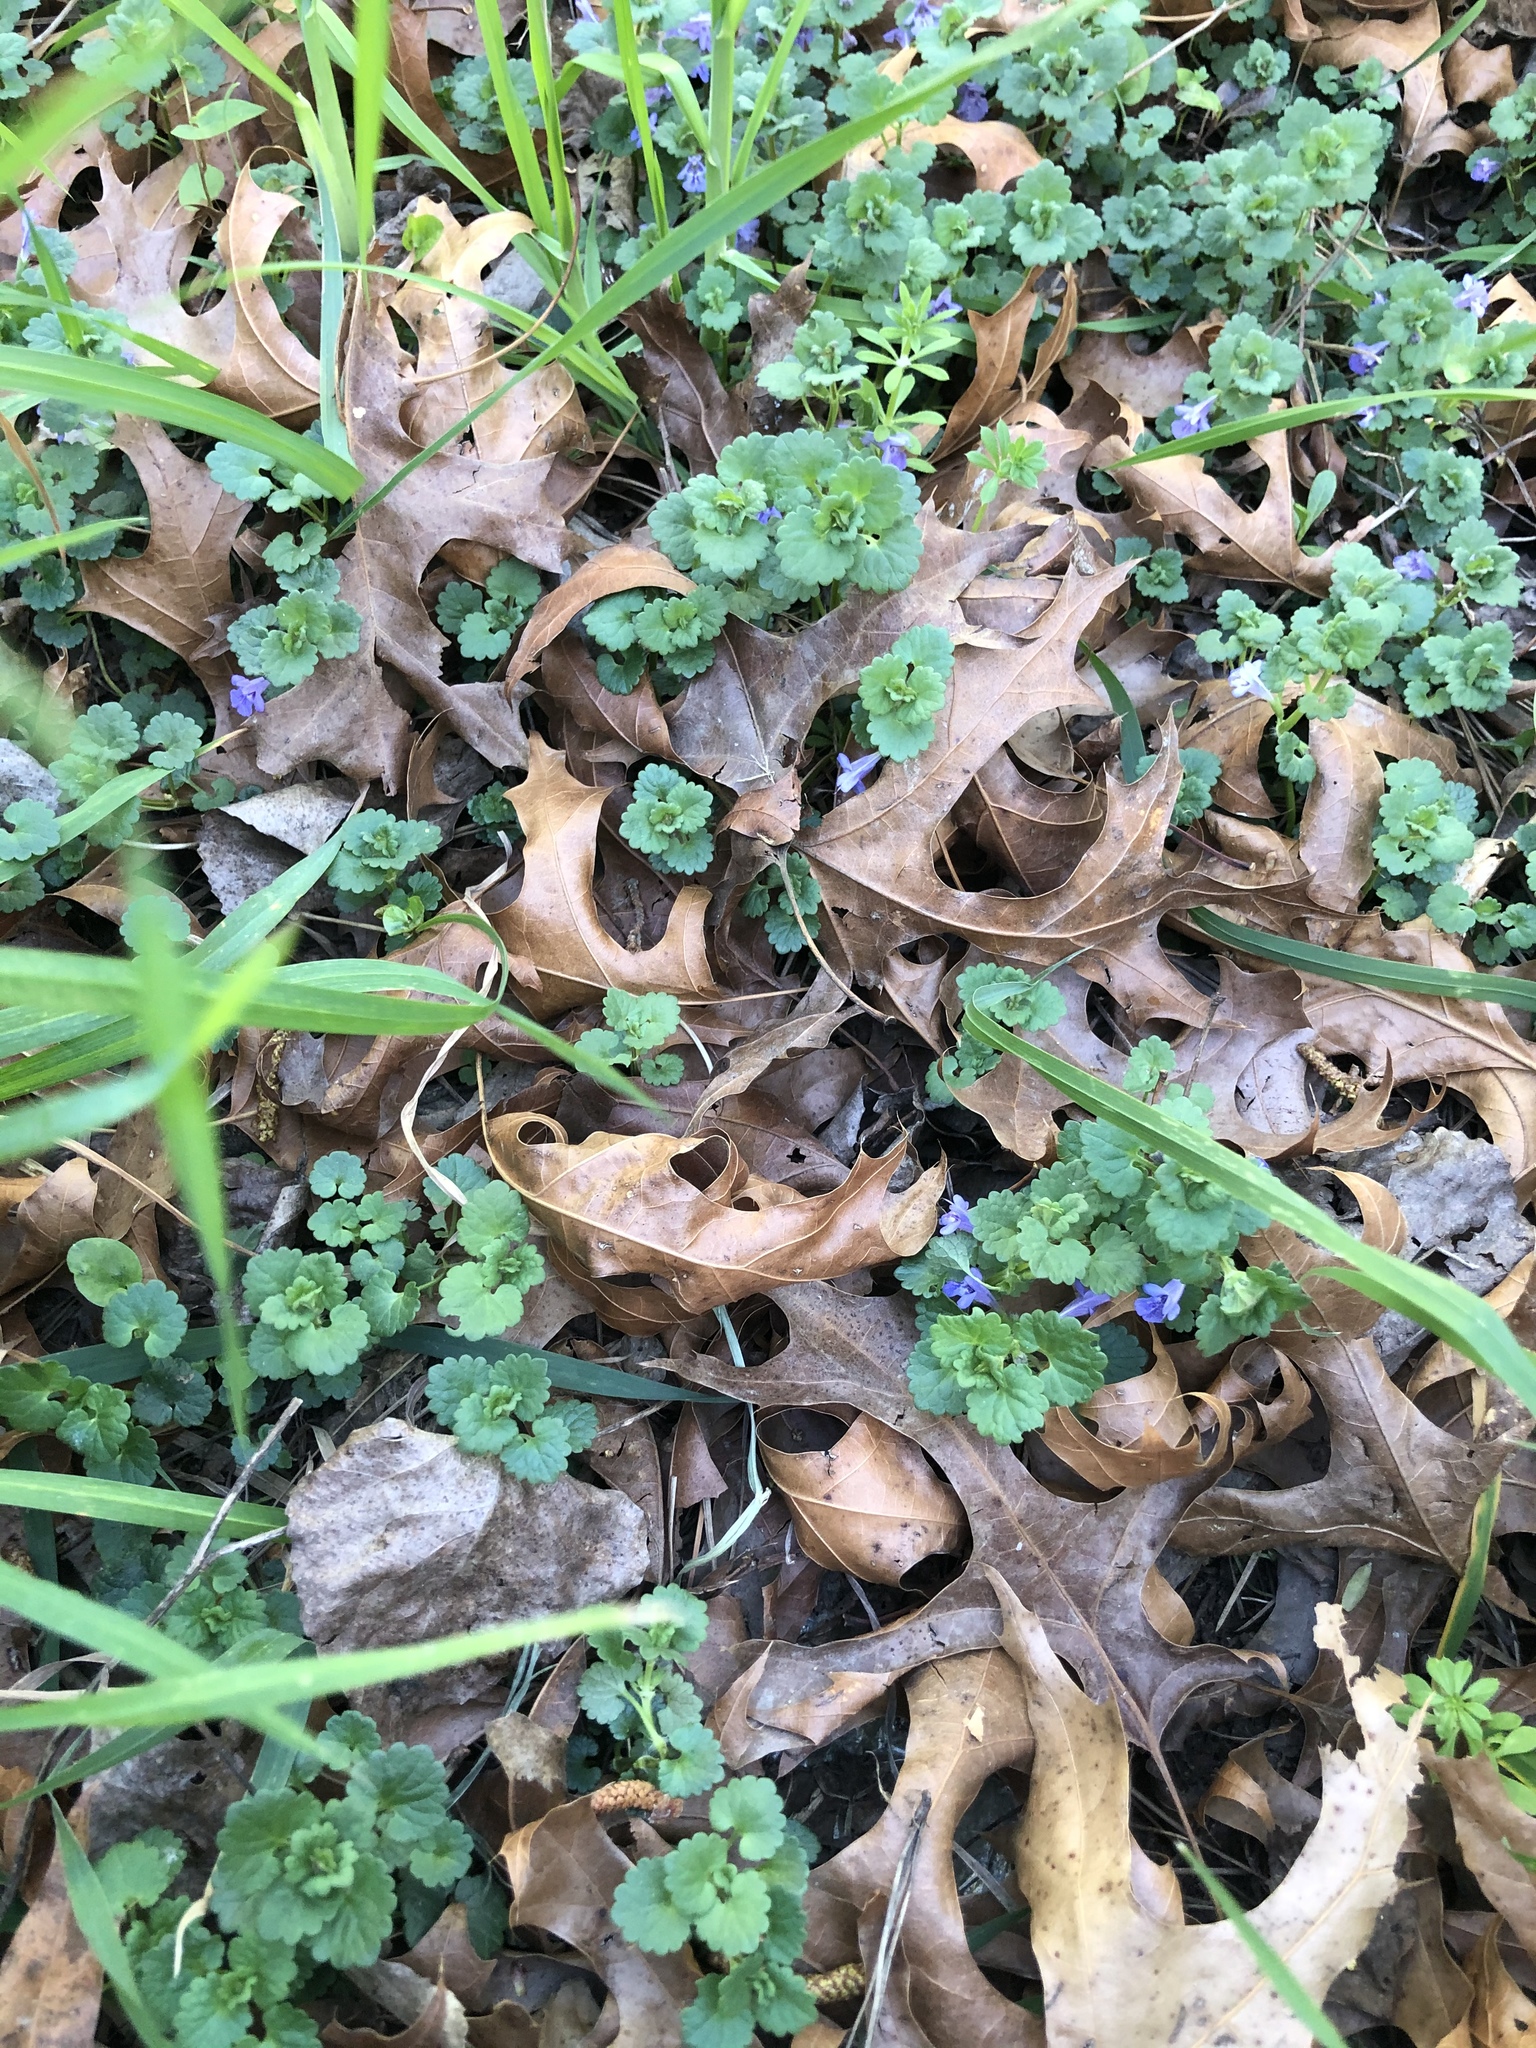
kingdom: Plantae
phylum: Tracheophyta
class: Magnoliopsida
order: Lamiales
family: Lamiaceae
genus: Glechoma
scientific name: Glechoma hederacea
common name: Ground ivy
